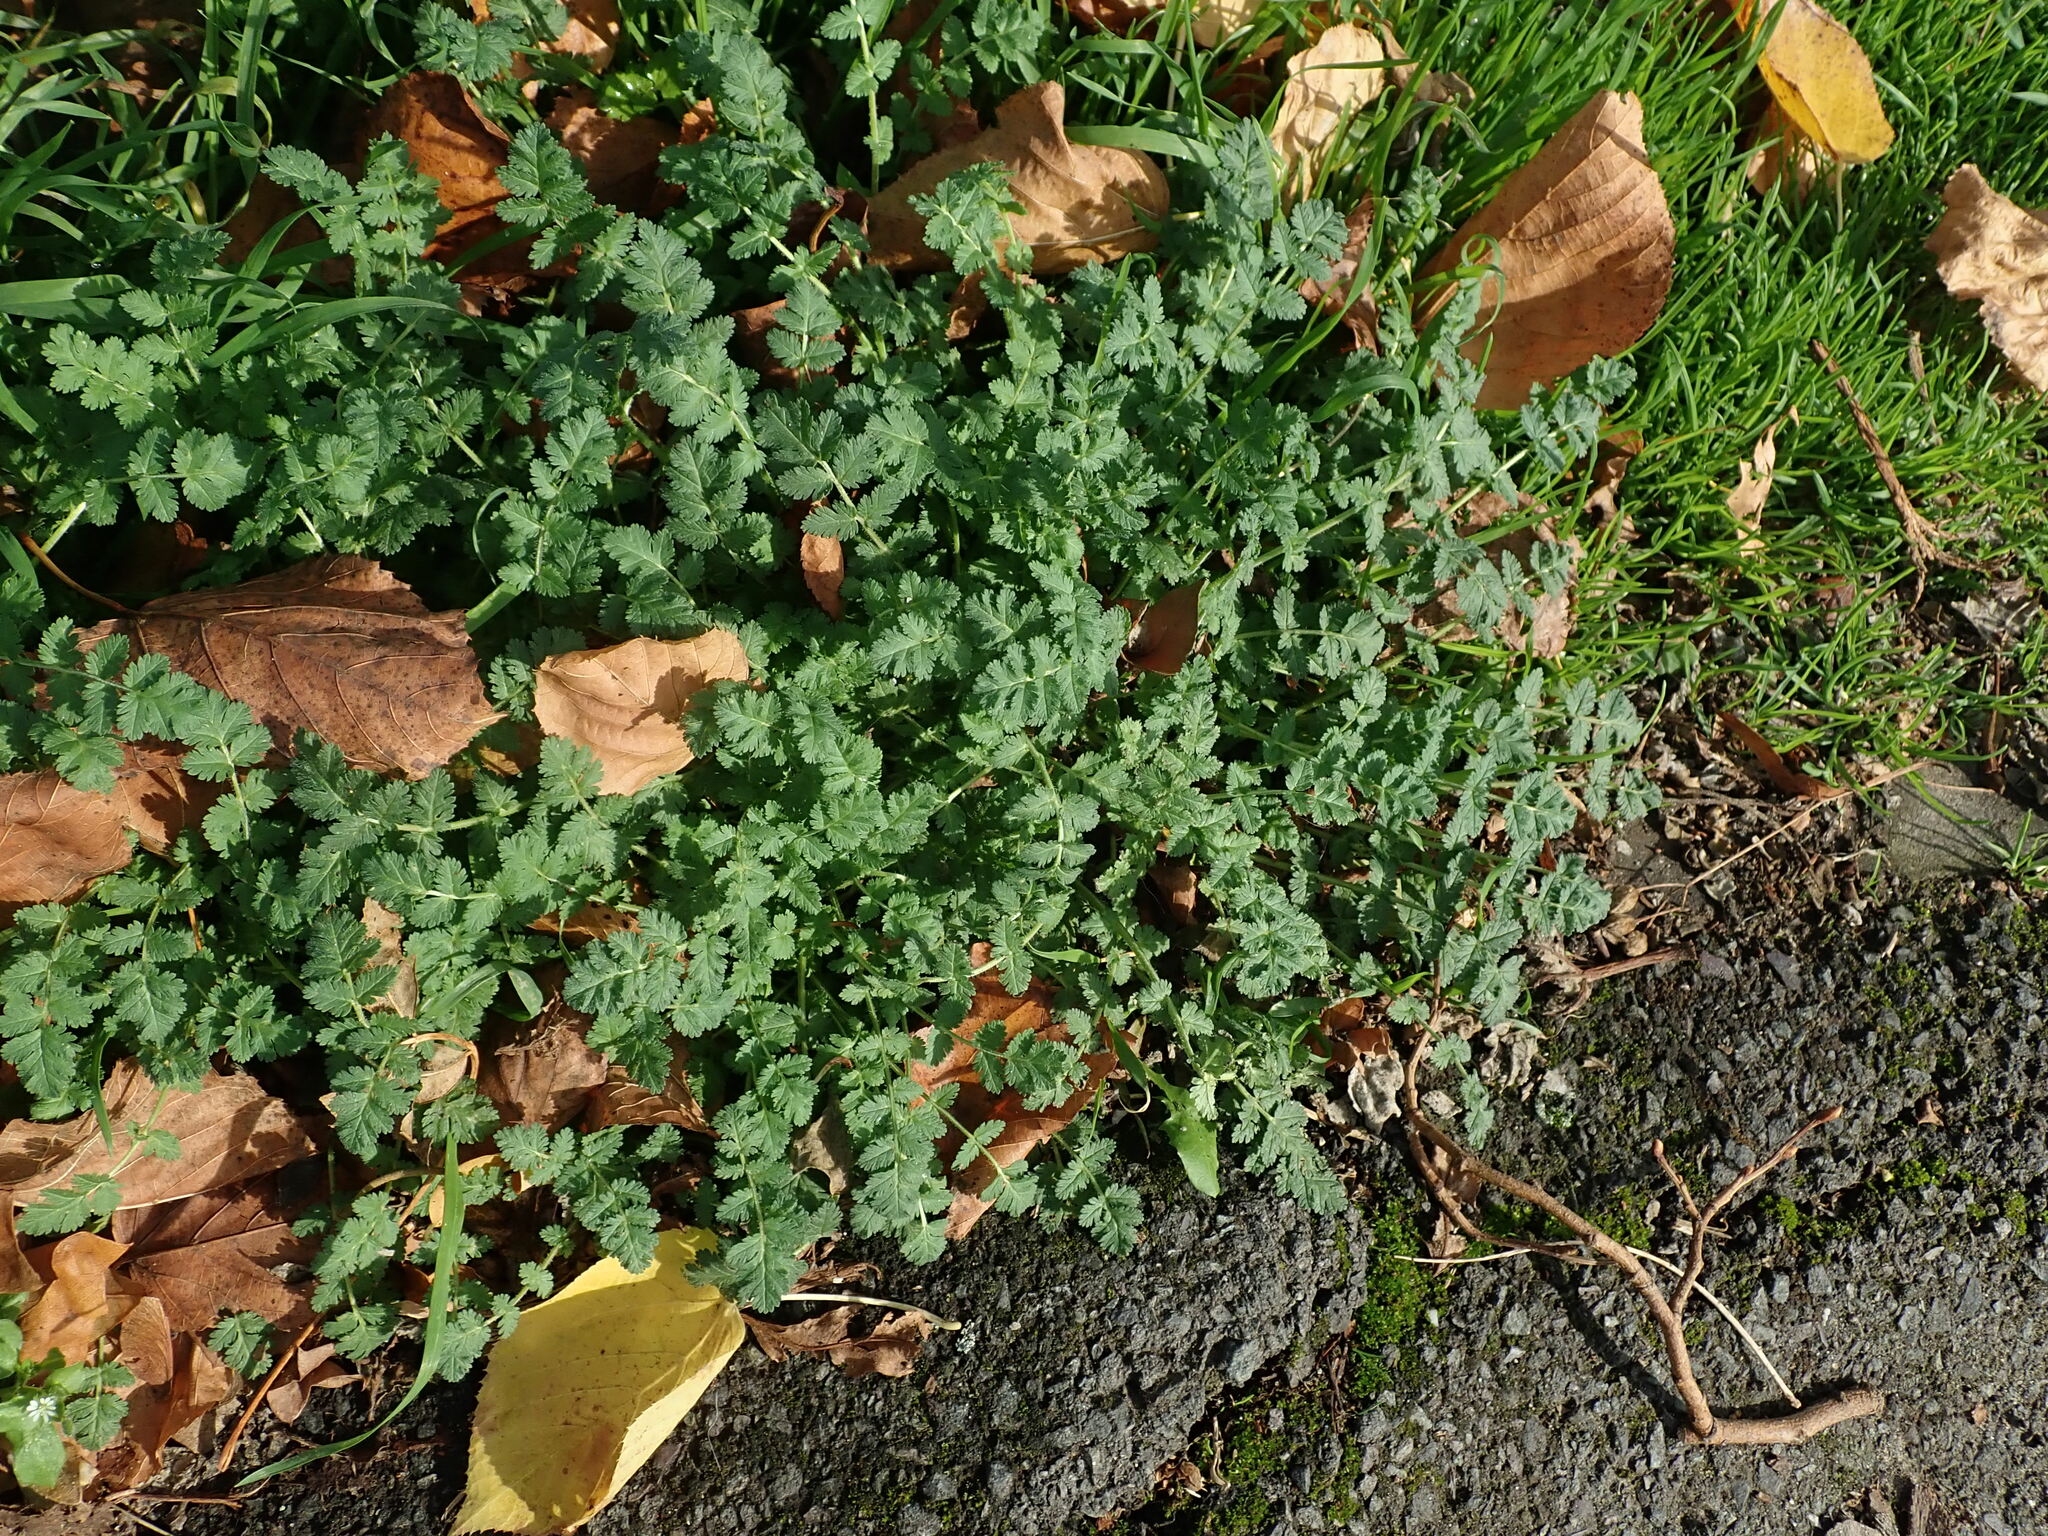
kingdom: Plantae
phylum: Tracheophyta
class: Magnoliopsida
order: Geraniales
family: Geraniaceae
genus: Erodium
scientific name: Erodium moschatum
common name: Musk stork's-bill
